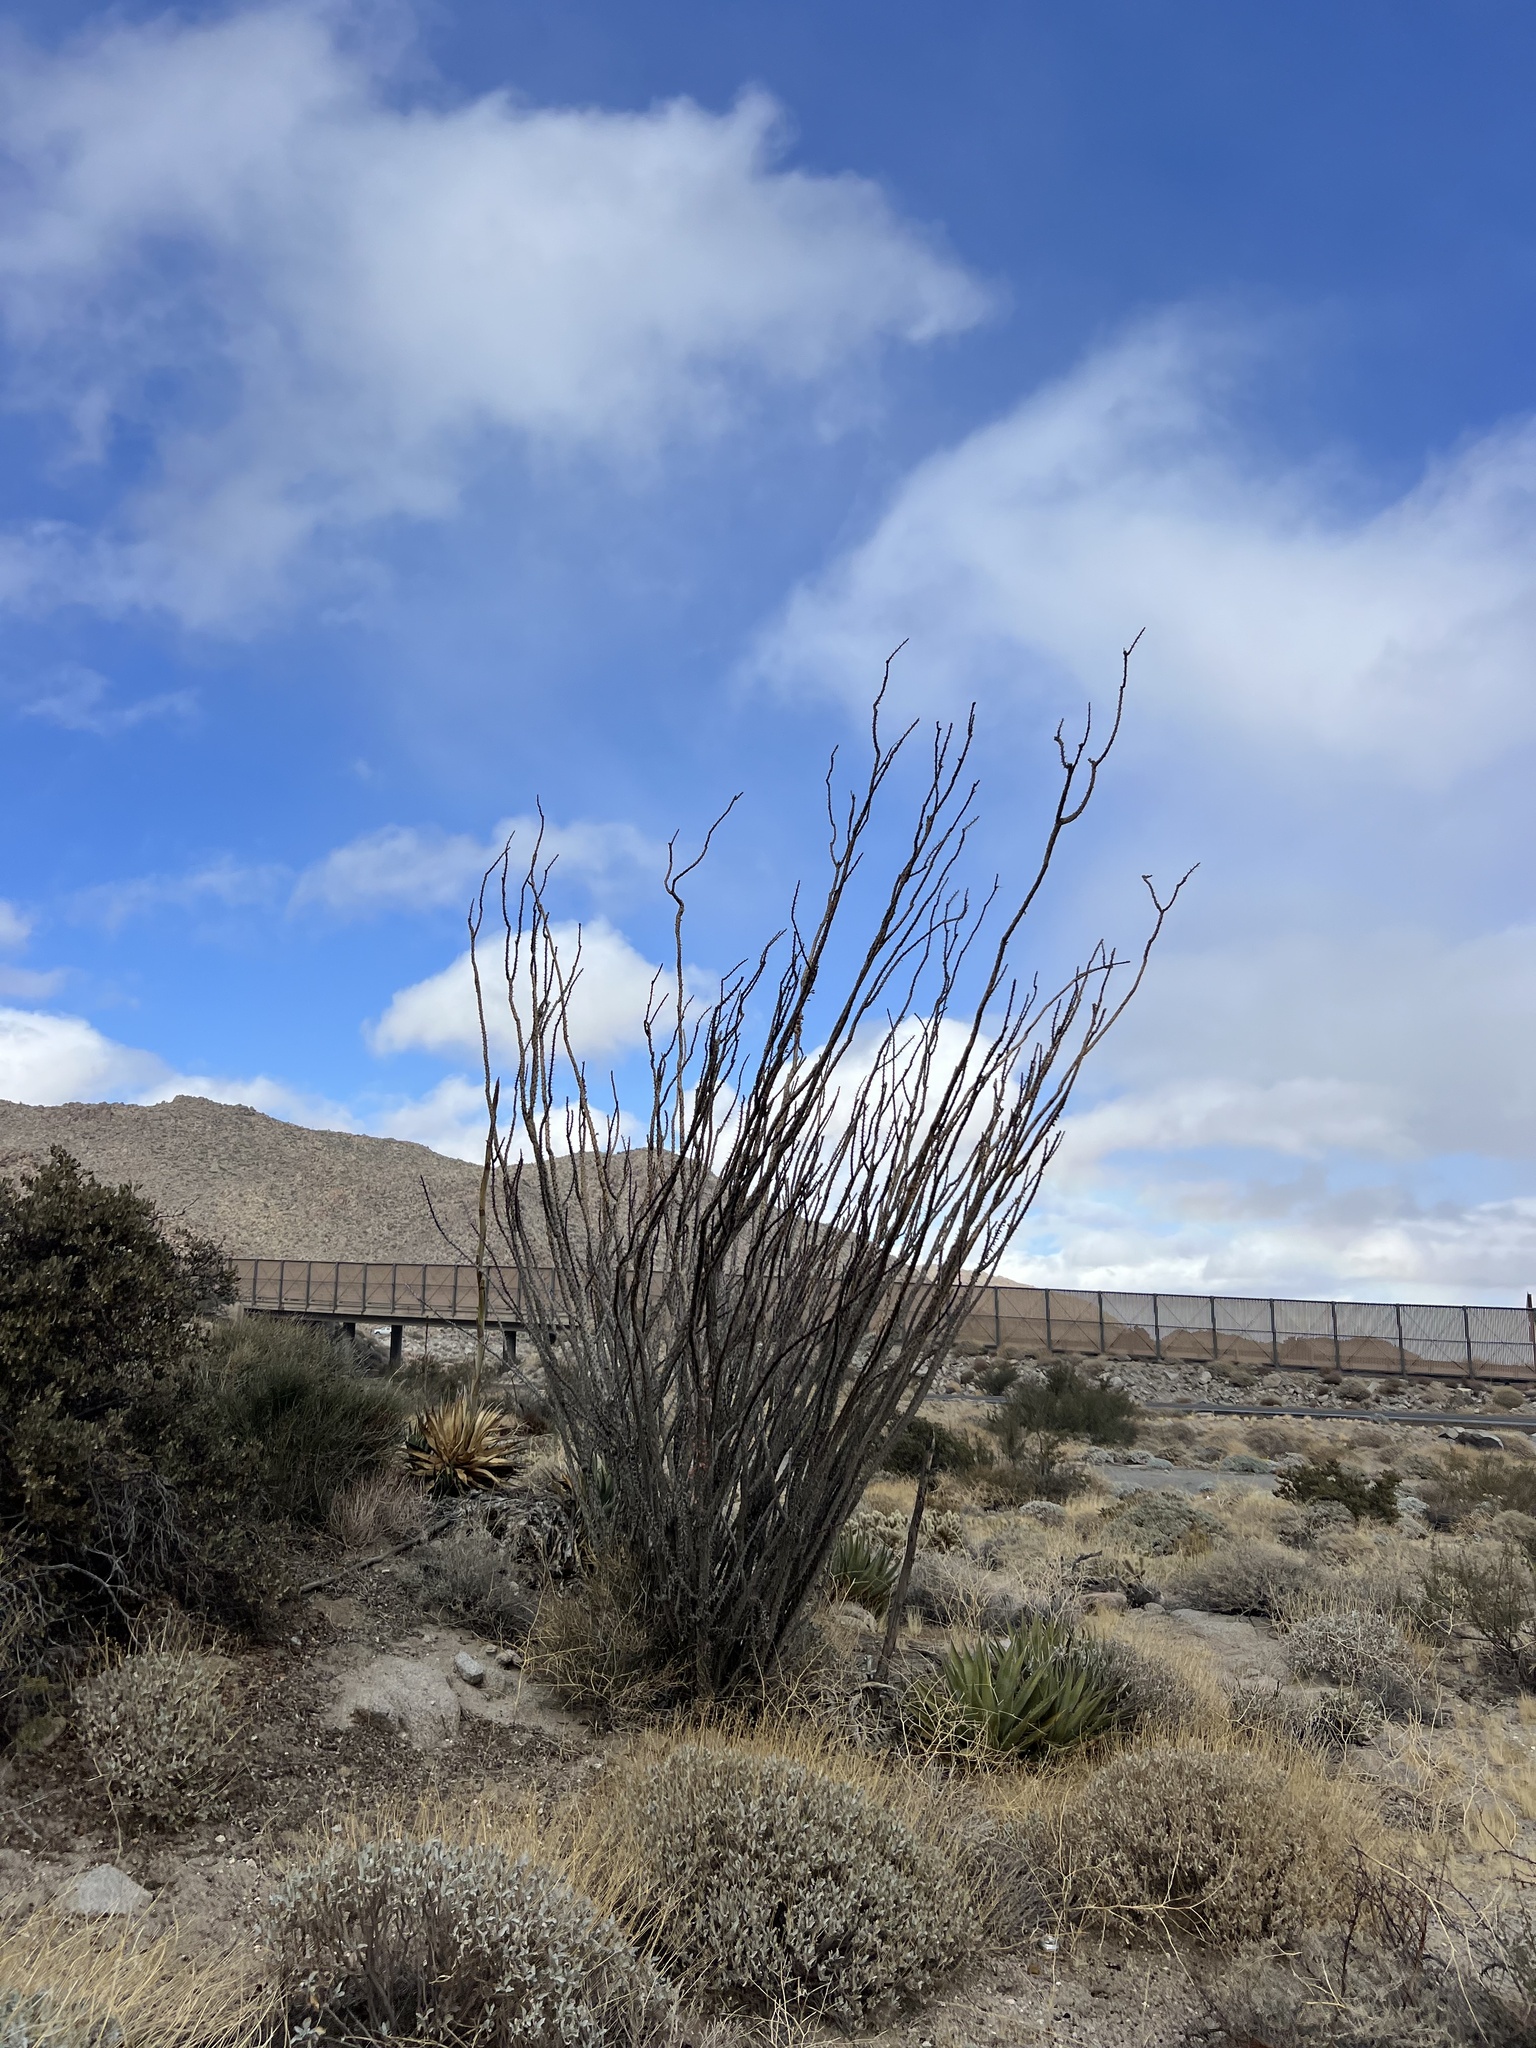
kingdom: Plantae
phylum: Tracheophyta
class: Magnoliopsida
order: Ericales
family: Fouquieriaceae
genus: Fouquieria
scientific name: Fouquieria splendens
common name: Vine-cactus
